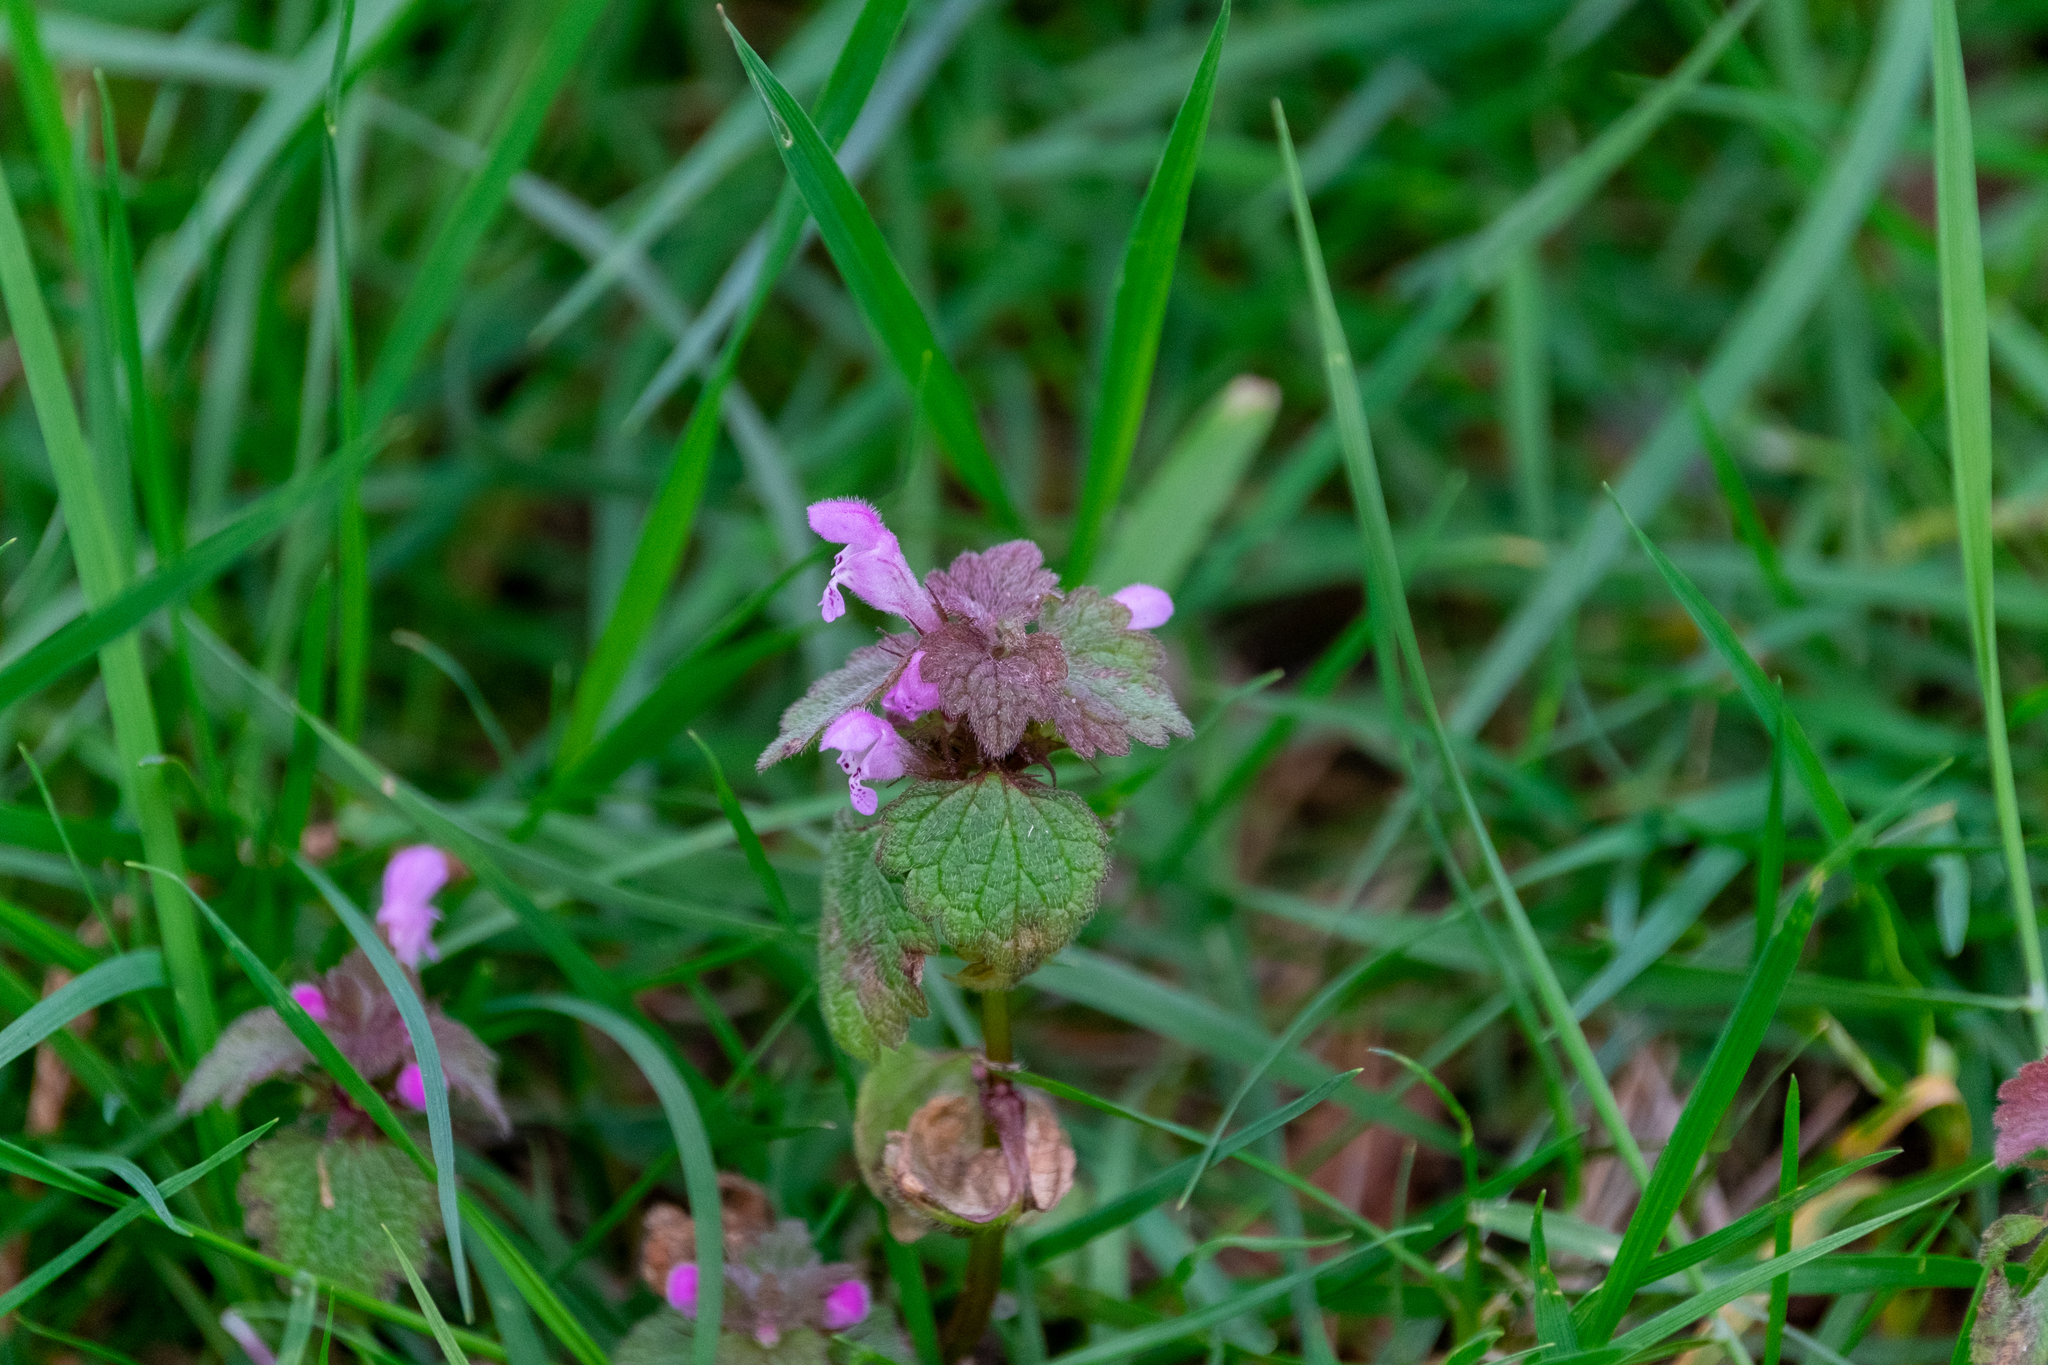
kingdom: Plantae
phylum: Tracheophyta
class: Magnoliopsida
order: Lamiales
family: Lamiaceae
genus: Lamium
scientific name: Lamium purpureum
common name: Red dead-nettle
